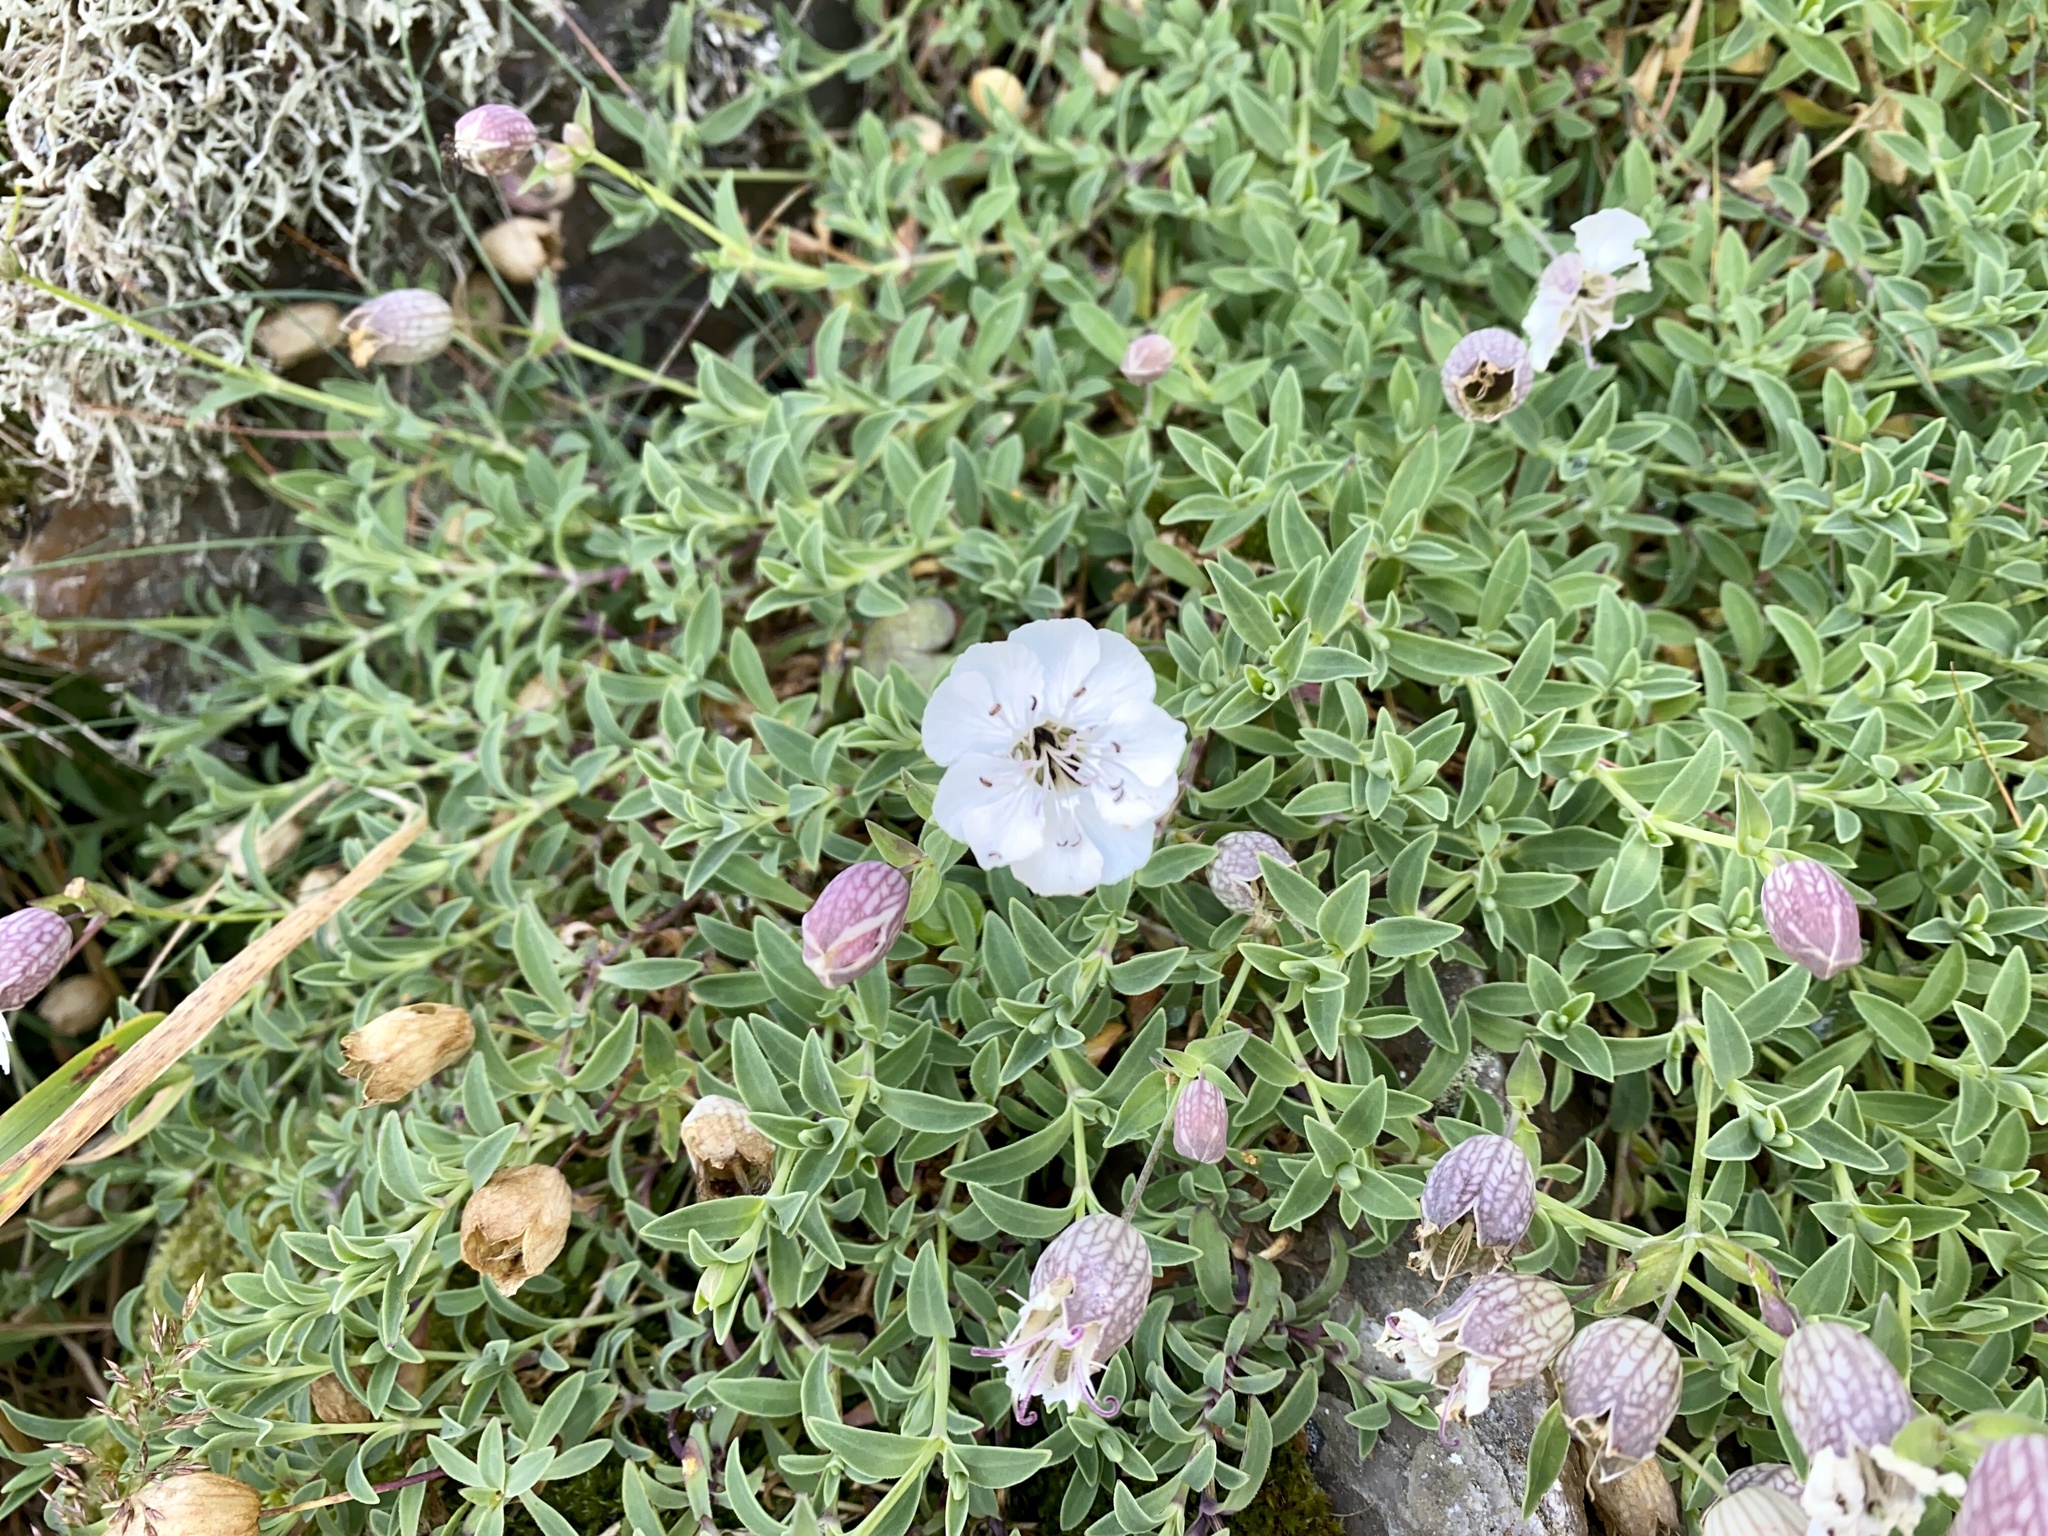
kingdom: Plantae
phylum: Tracheophyta
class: Magnoliopsida
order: Caryophyllales
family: Caryophyllaceae
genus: Silene
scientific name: Silene uniflora
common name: Sea campion
